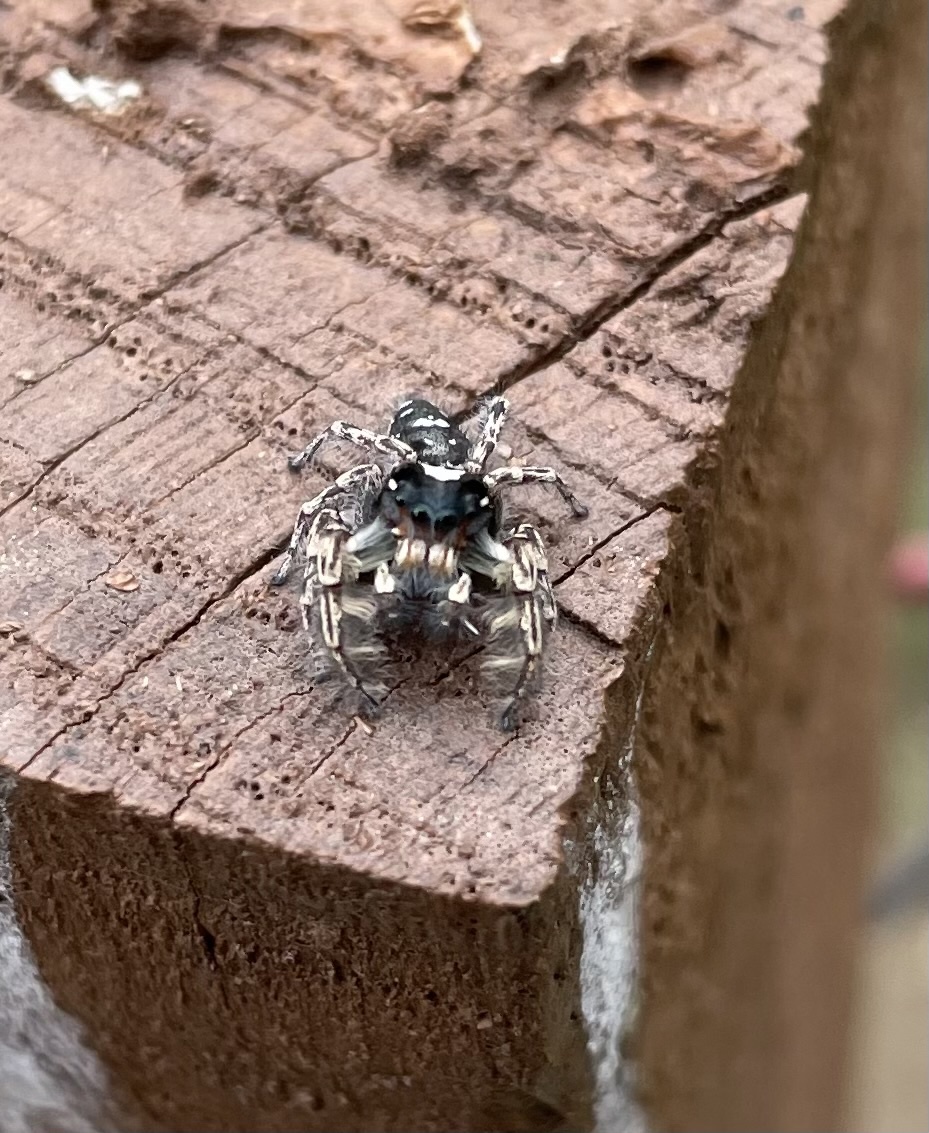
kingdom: Animalia
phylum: Arthropoda
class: Arachnida
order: Araneae
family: Salticidae
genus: Phidippus
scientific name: Phidippus putnami
